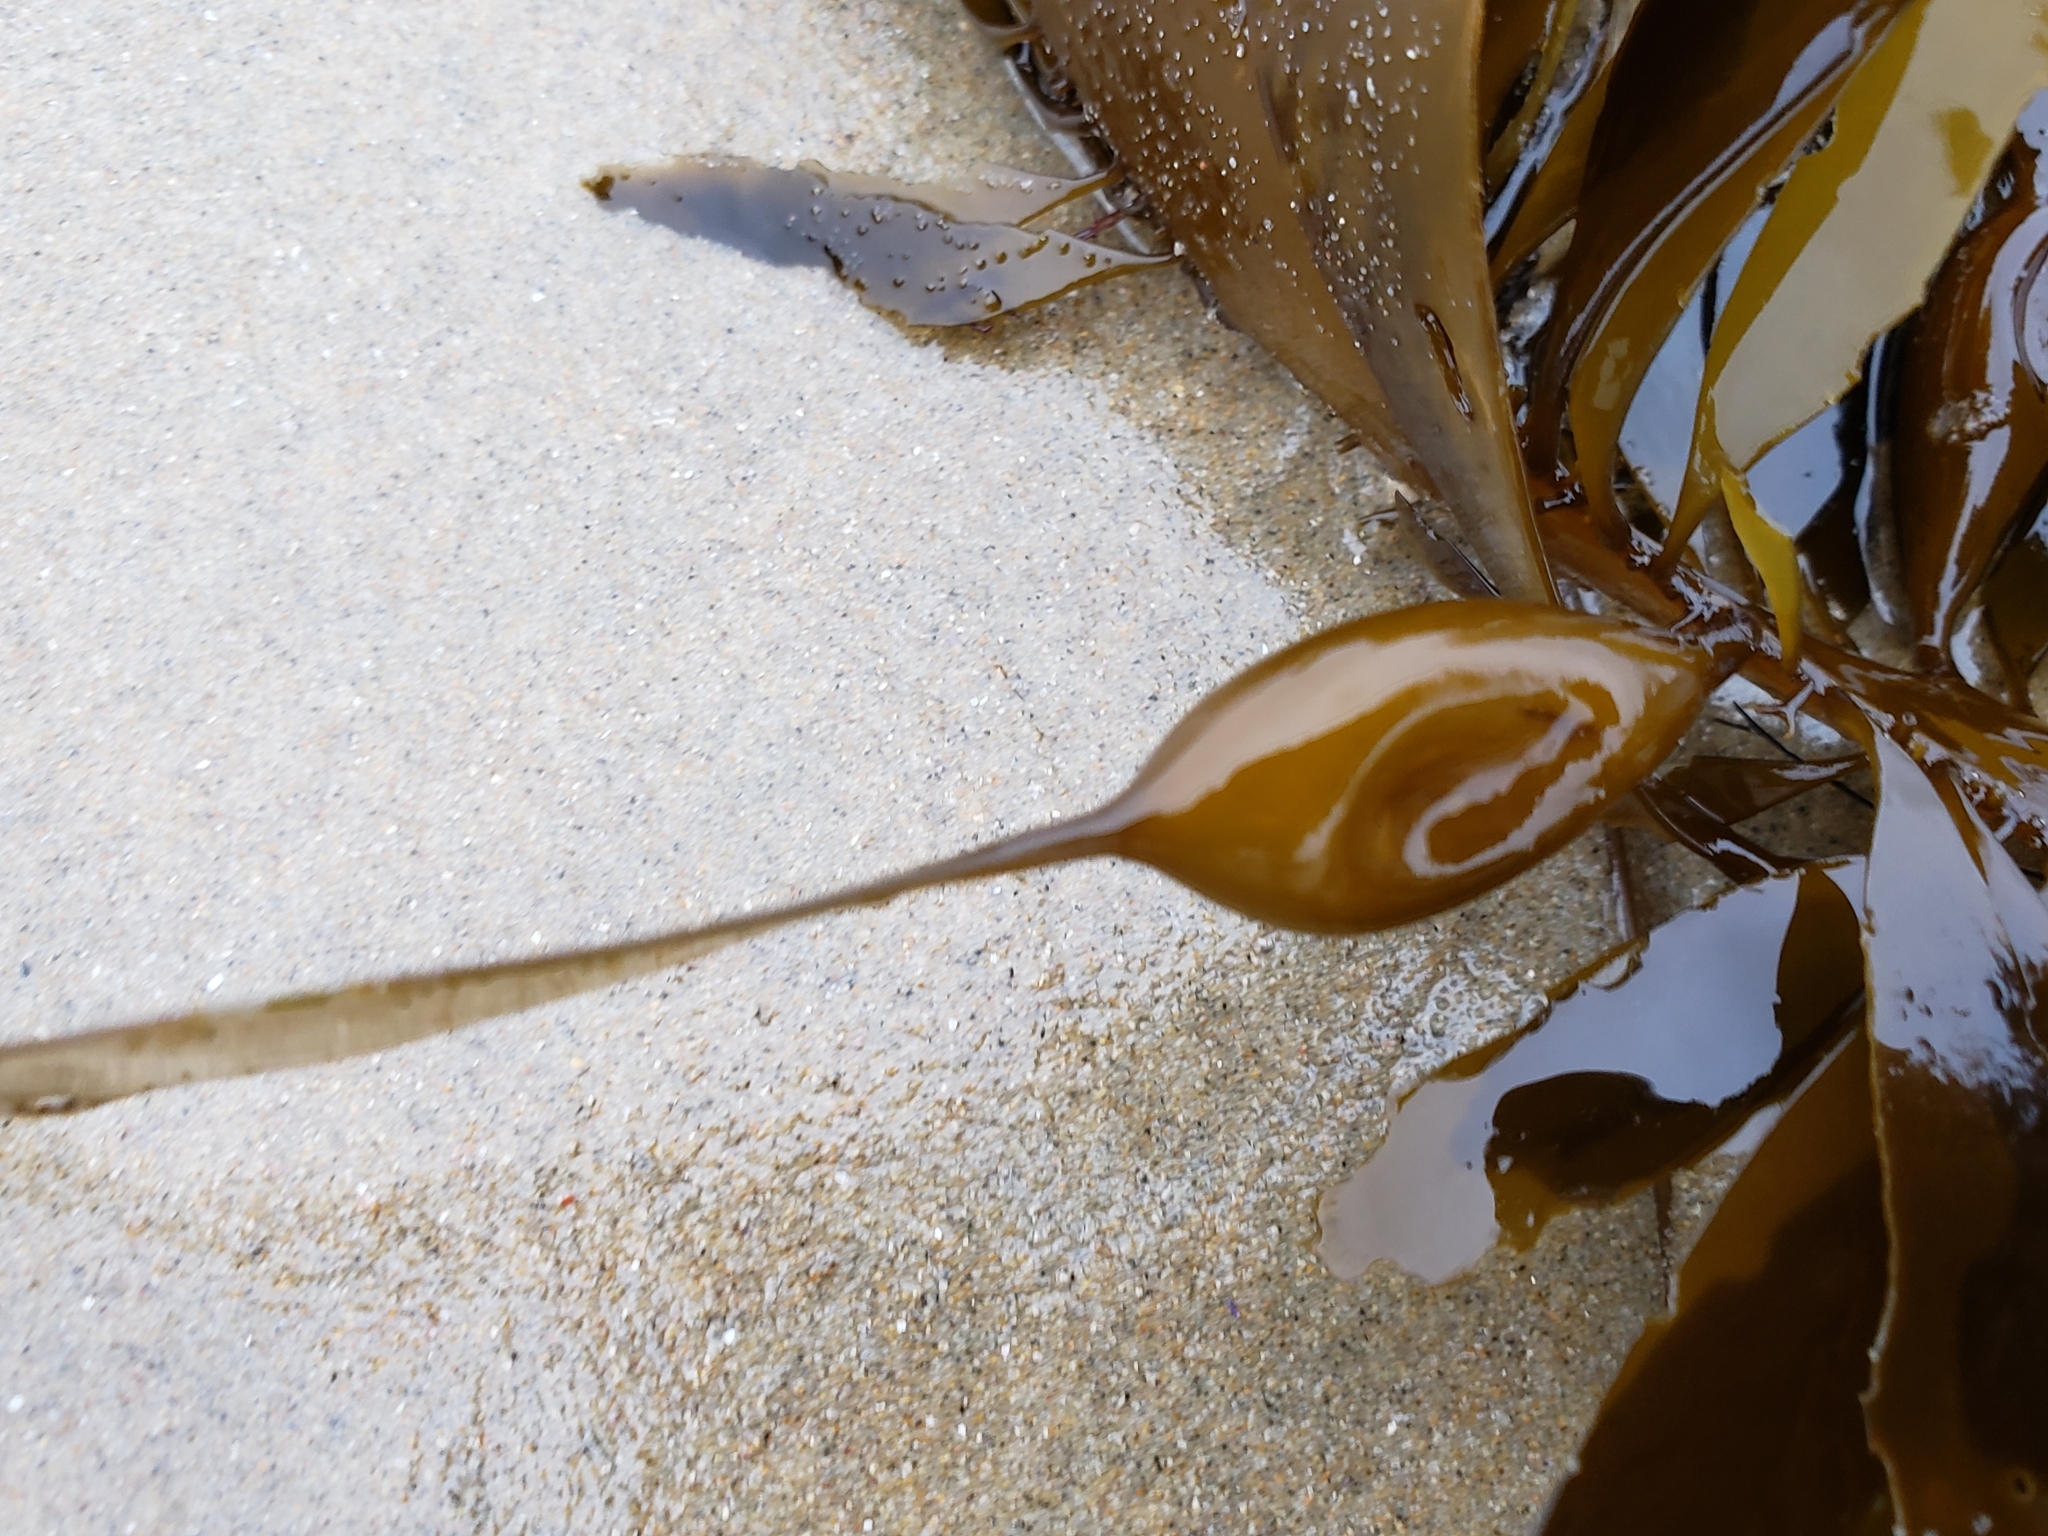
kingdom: Chromista
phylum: Ochrophyta
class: Phaeophyceae
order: Laminariales
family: Lessoniaceae
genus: Egregia
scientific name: Egregia menziesii
